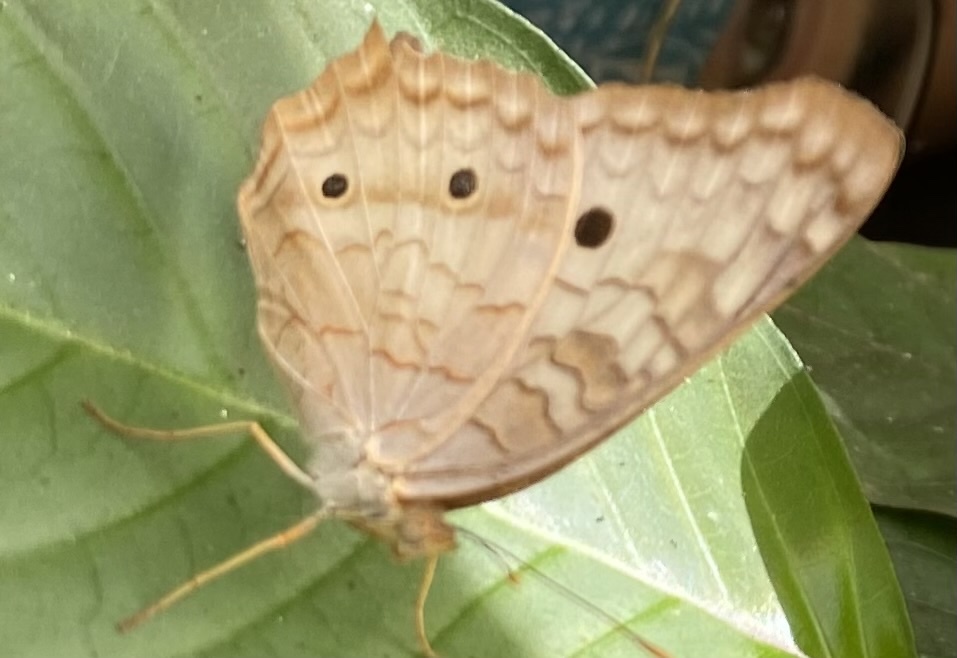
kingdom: Animalia
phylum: Arthropoda
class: Insecta
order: Lepidoptera
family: Nymphalidae
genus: Anartia
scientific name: Anartia jatrophae
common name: White peacock
